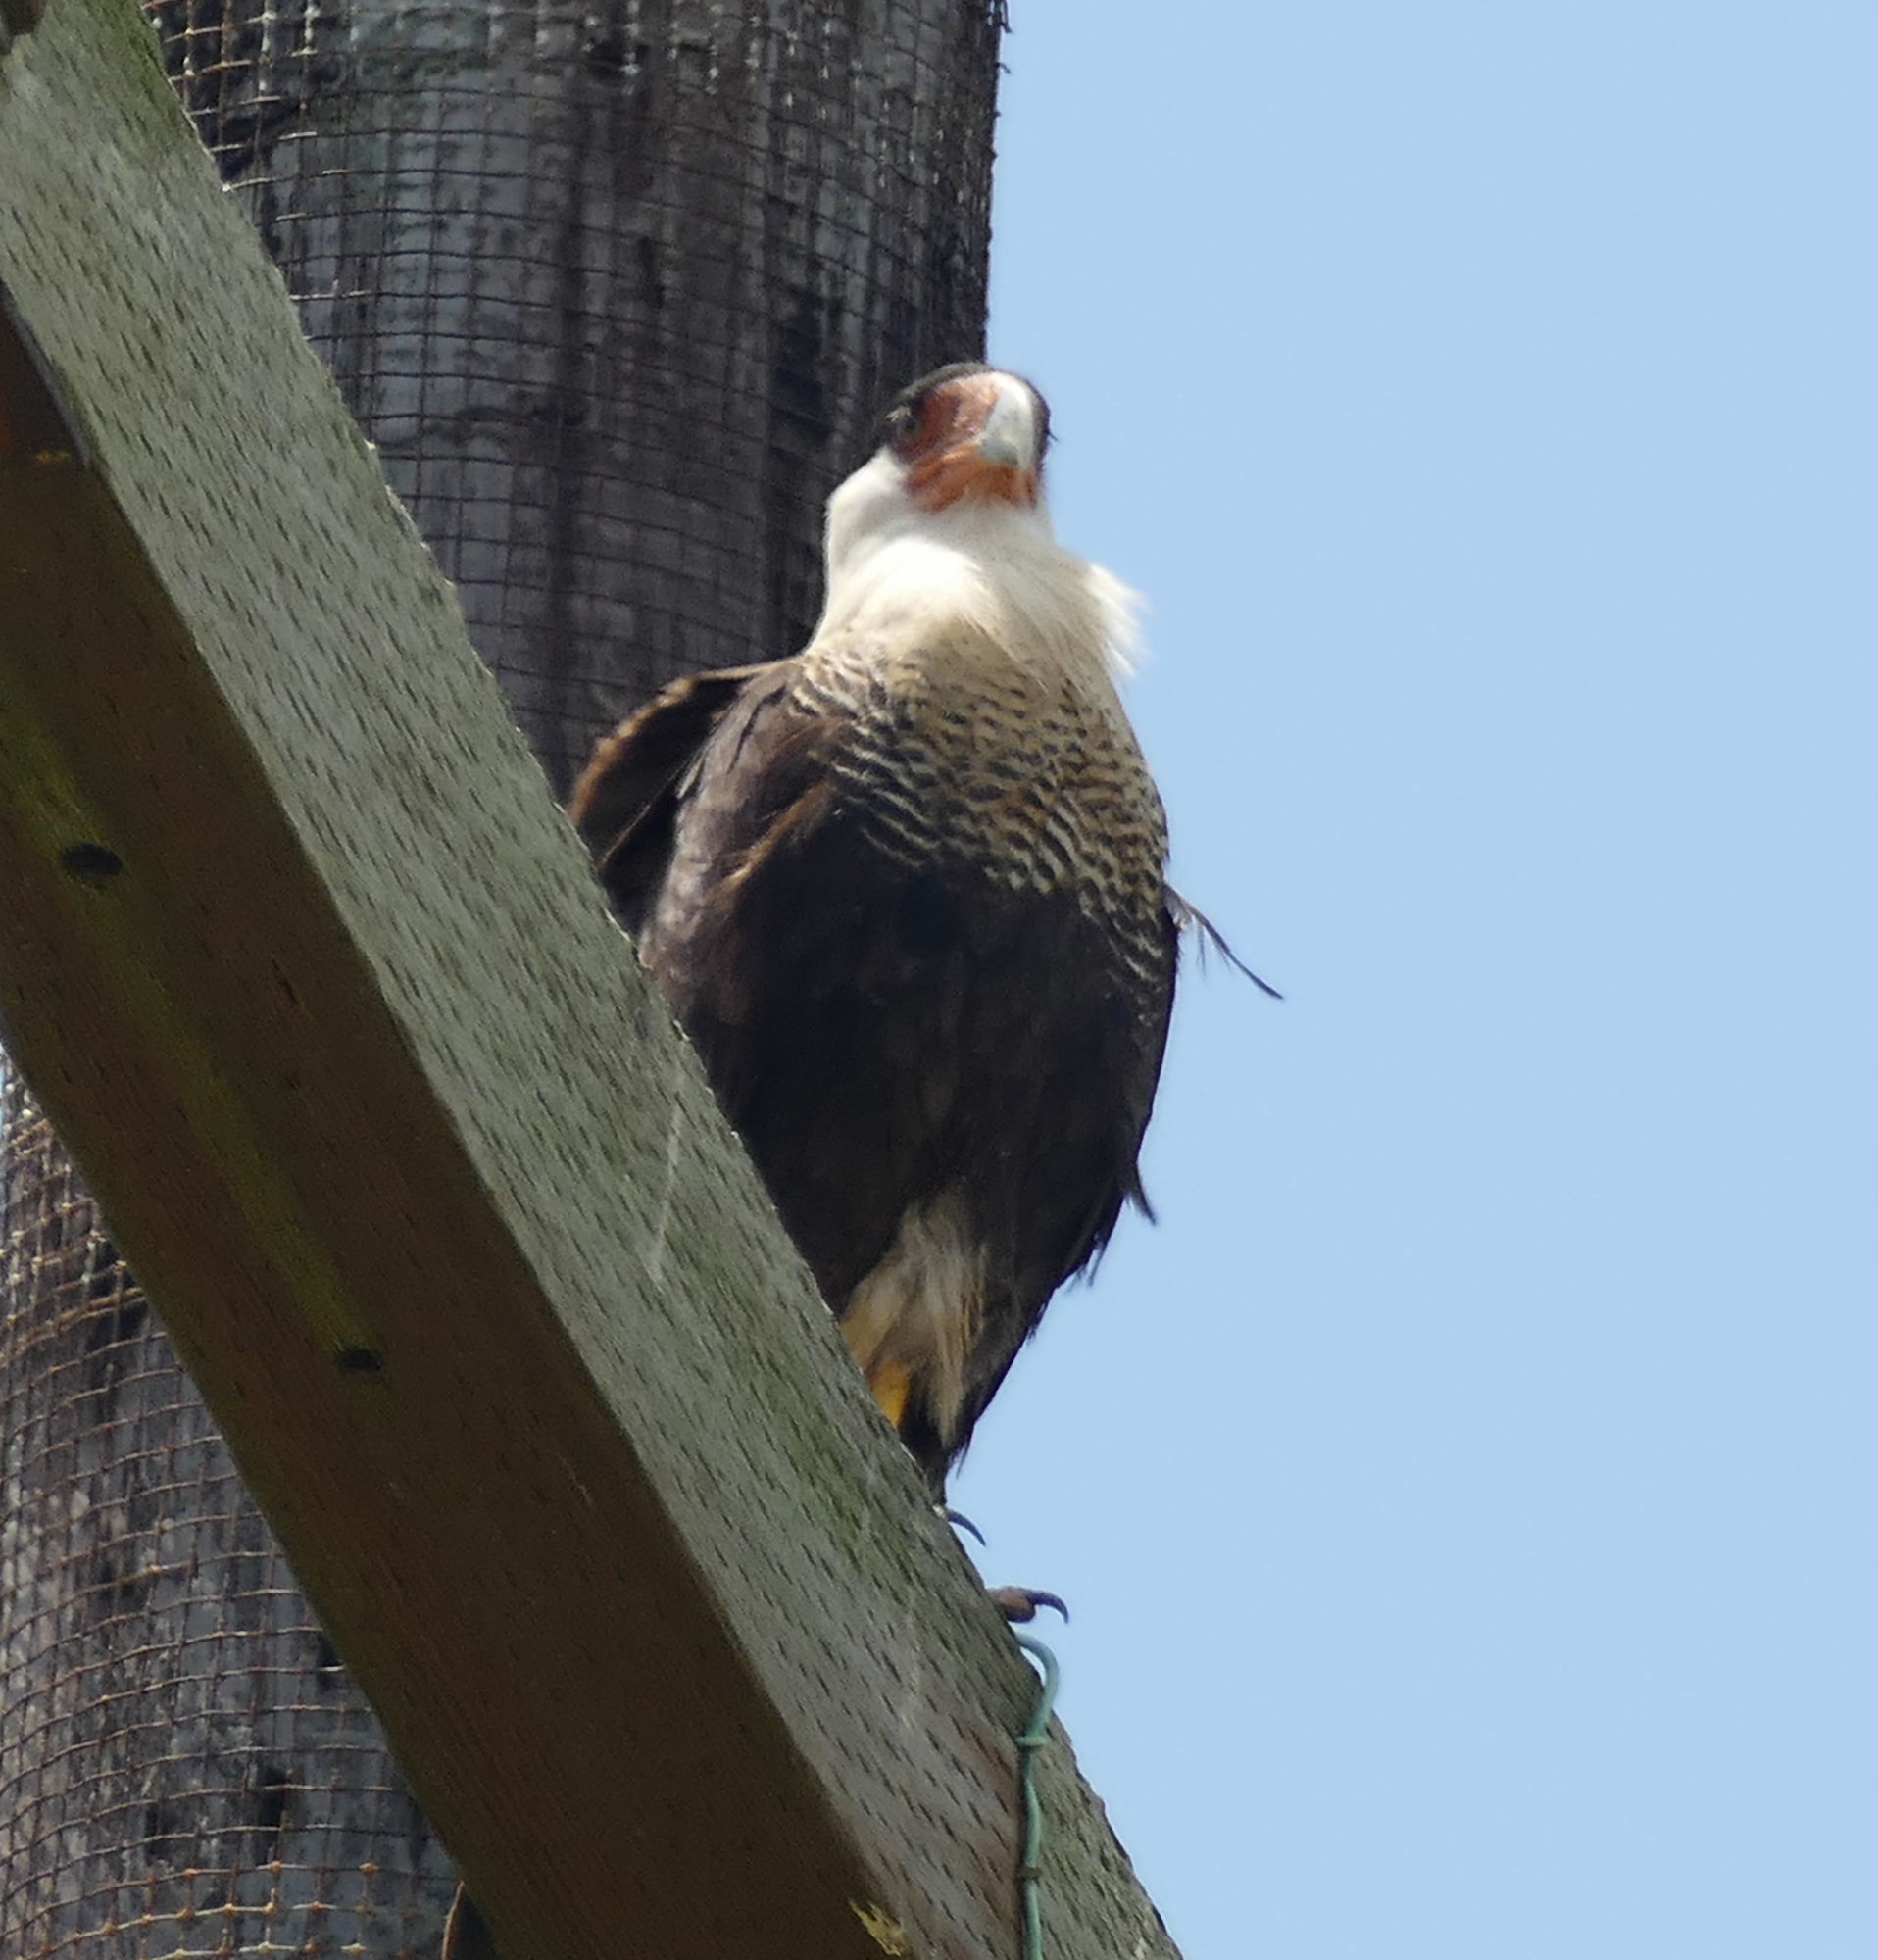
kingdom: Animalia
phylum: Chordata
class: Aves
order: Falconiformes
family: Falconidae
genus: Caracara
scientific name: Caracara plancus
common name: Southern caracara
